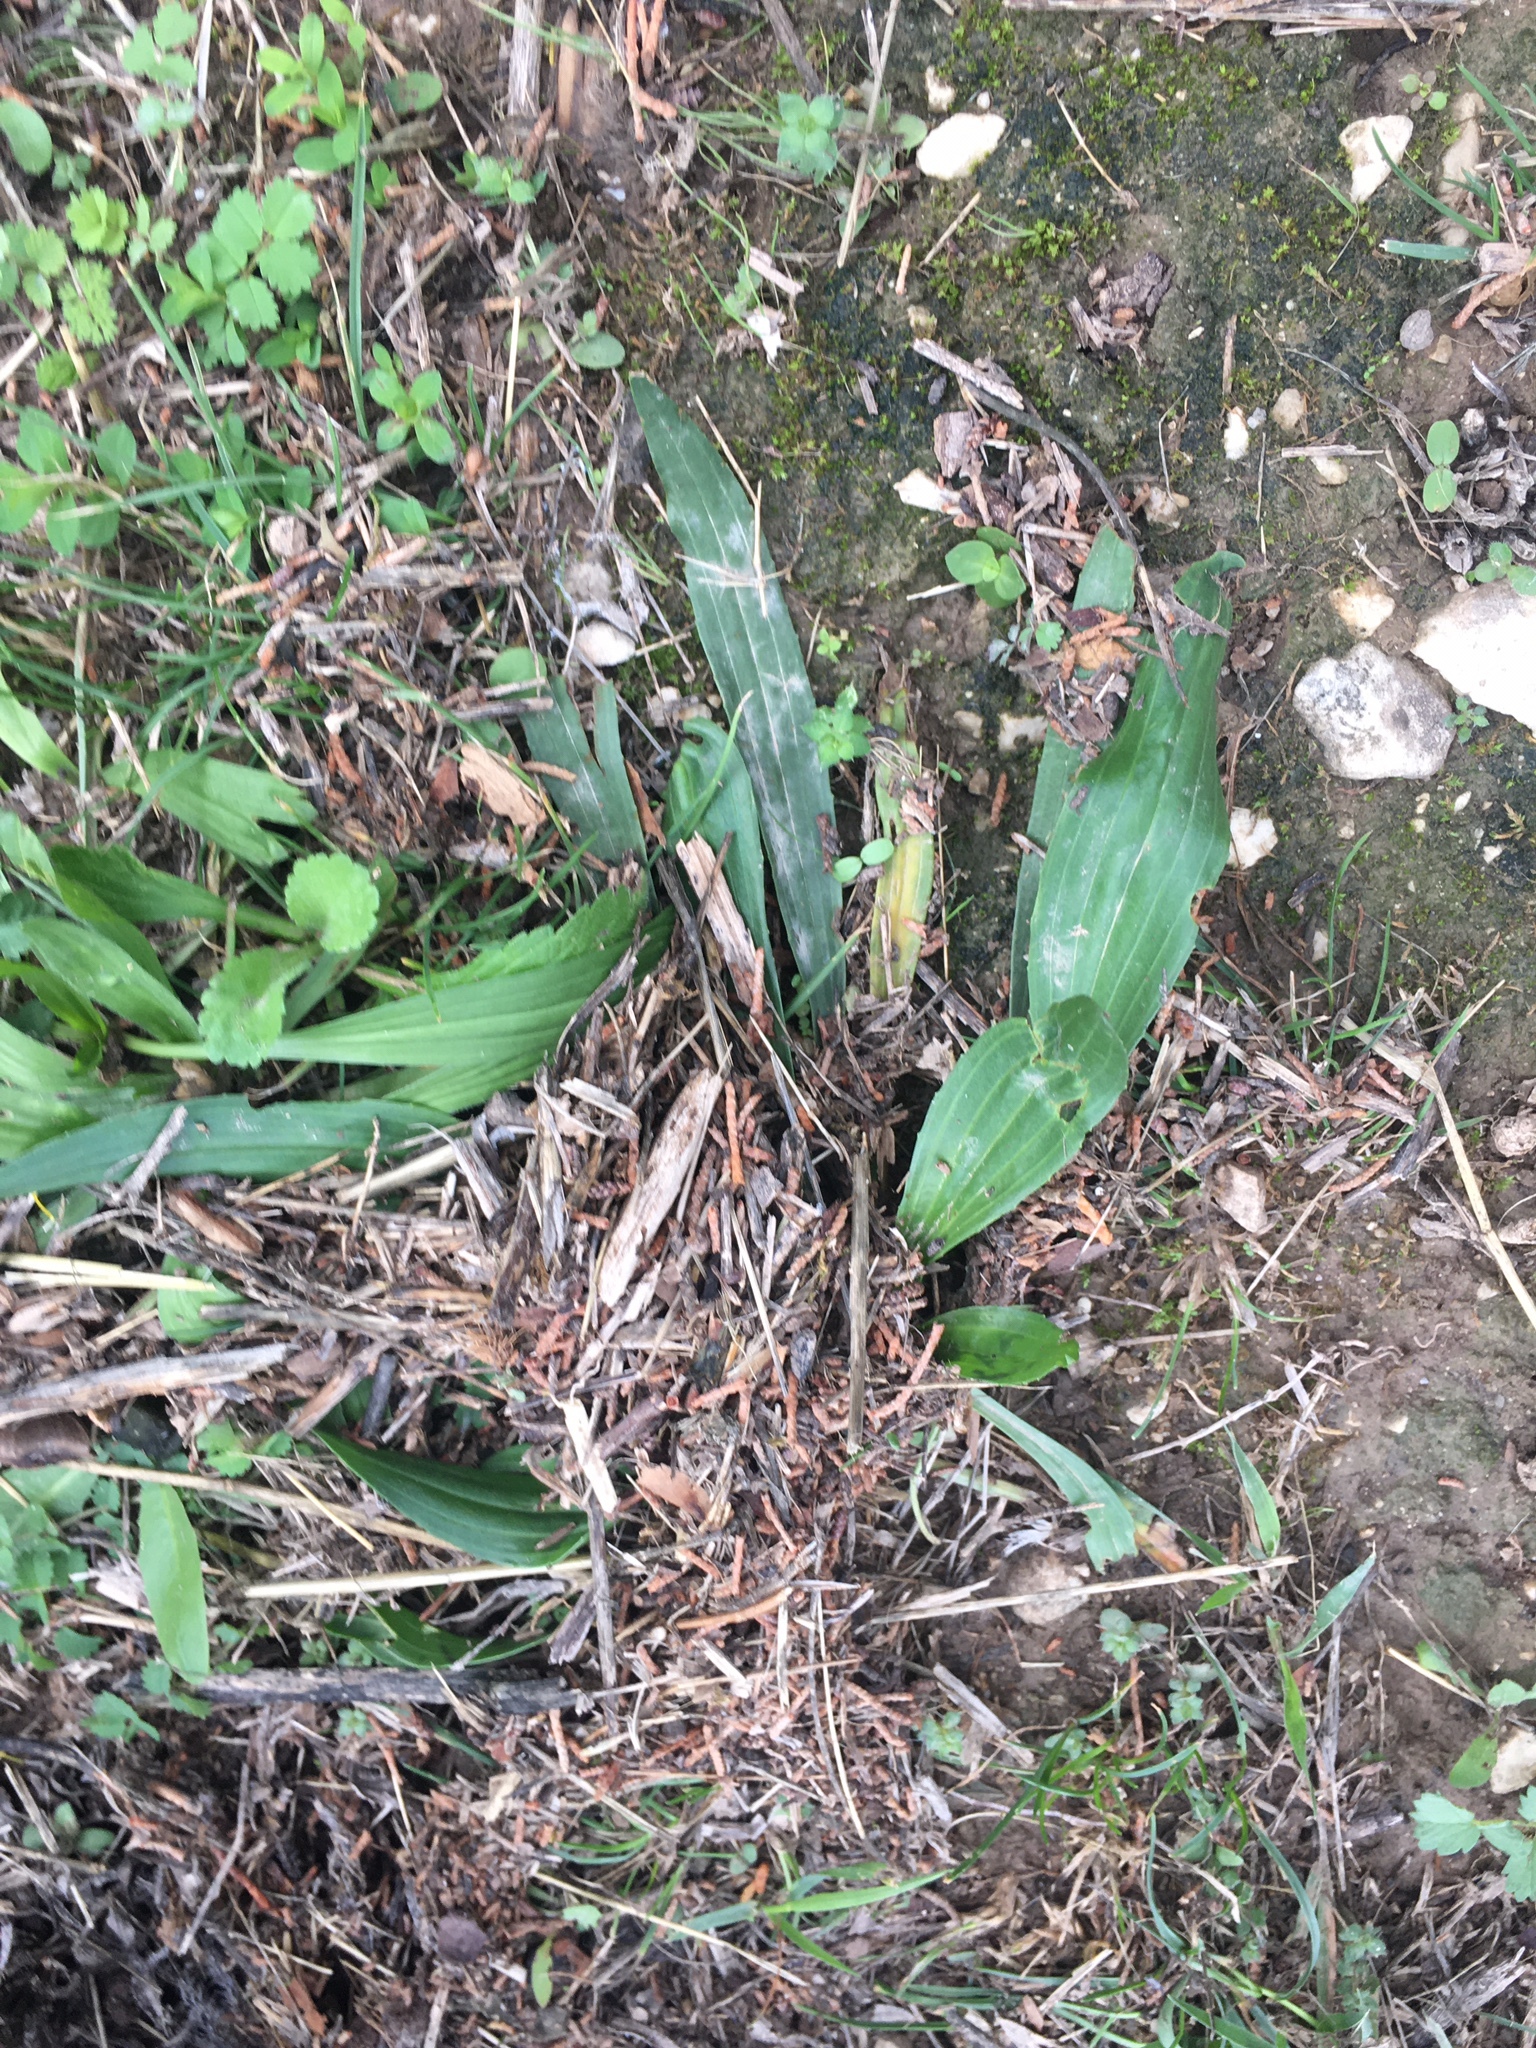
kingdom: Plantae
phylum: Tracheophyta
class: Magnoliopsida
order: Lamiales
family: Plantaginaceae
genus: Plantago
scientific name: Plantago lanceolata
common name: Ribwort plantain
